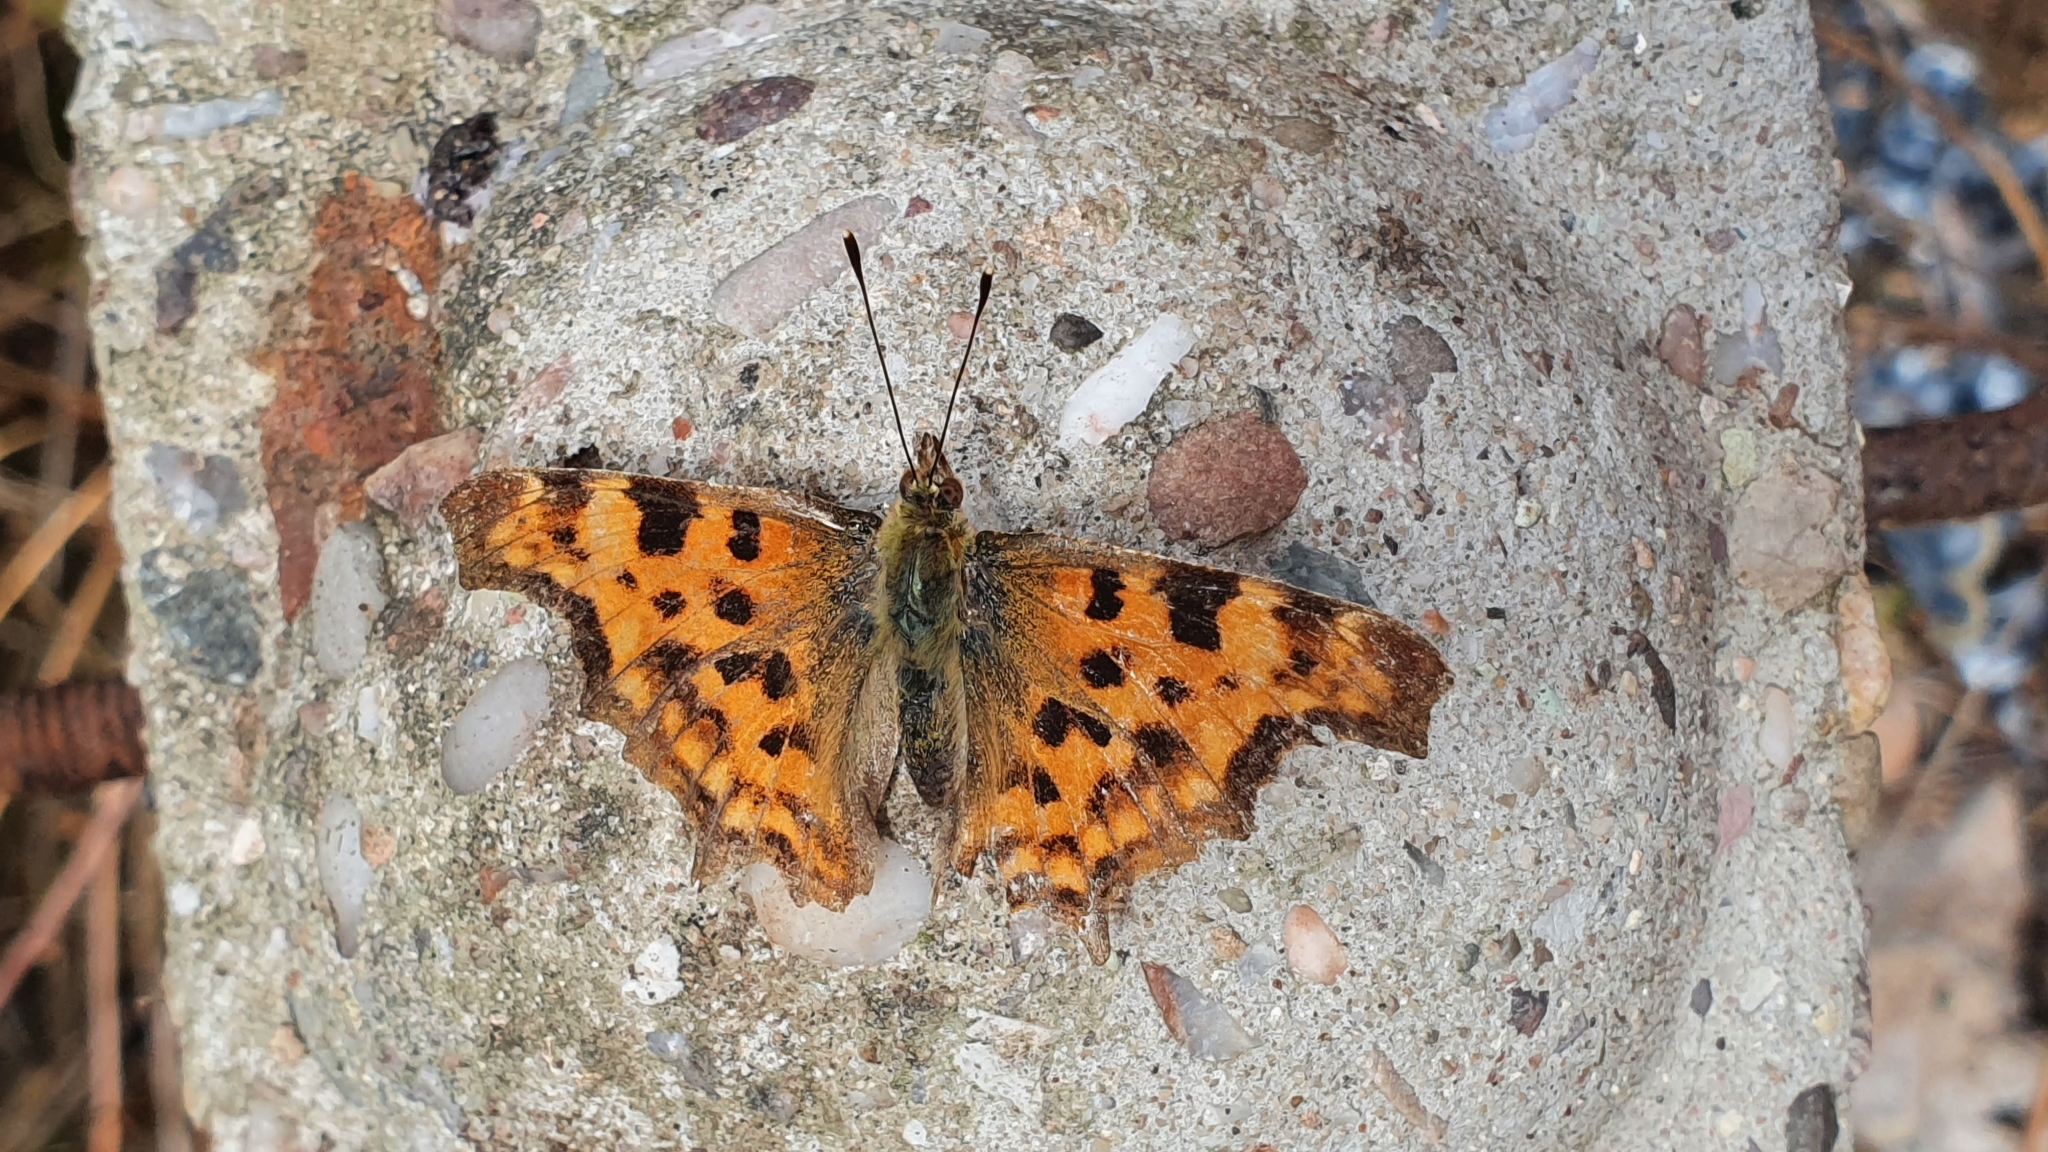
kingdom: Animalia
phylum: Arthropoda
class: Insecta
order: Lepidoptera
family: Nymphalidae
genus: Polygonia
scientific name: Polygonia c-album
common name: Comma
